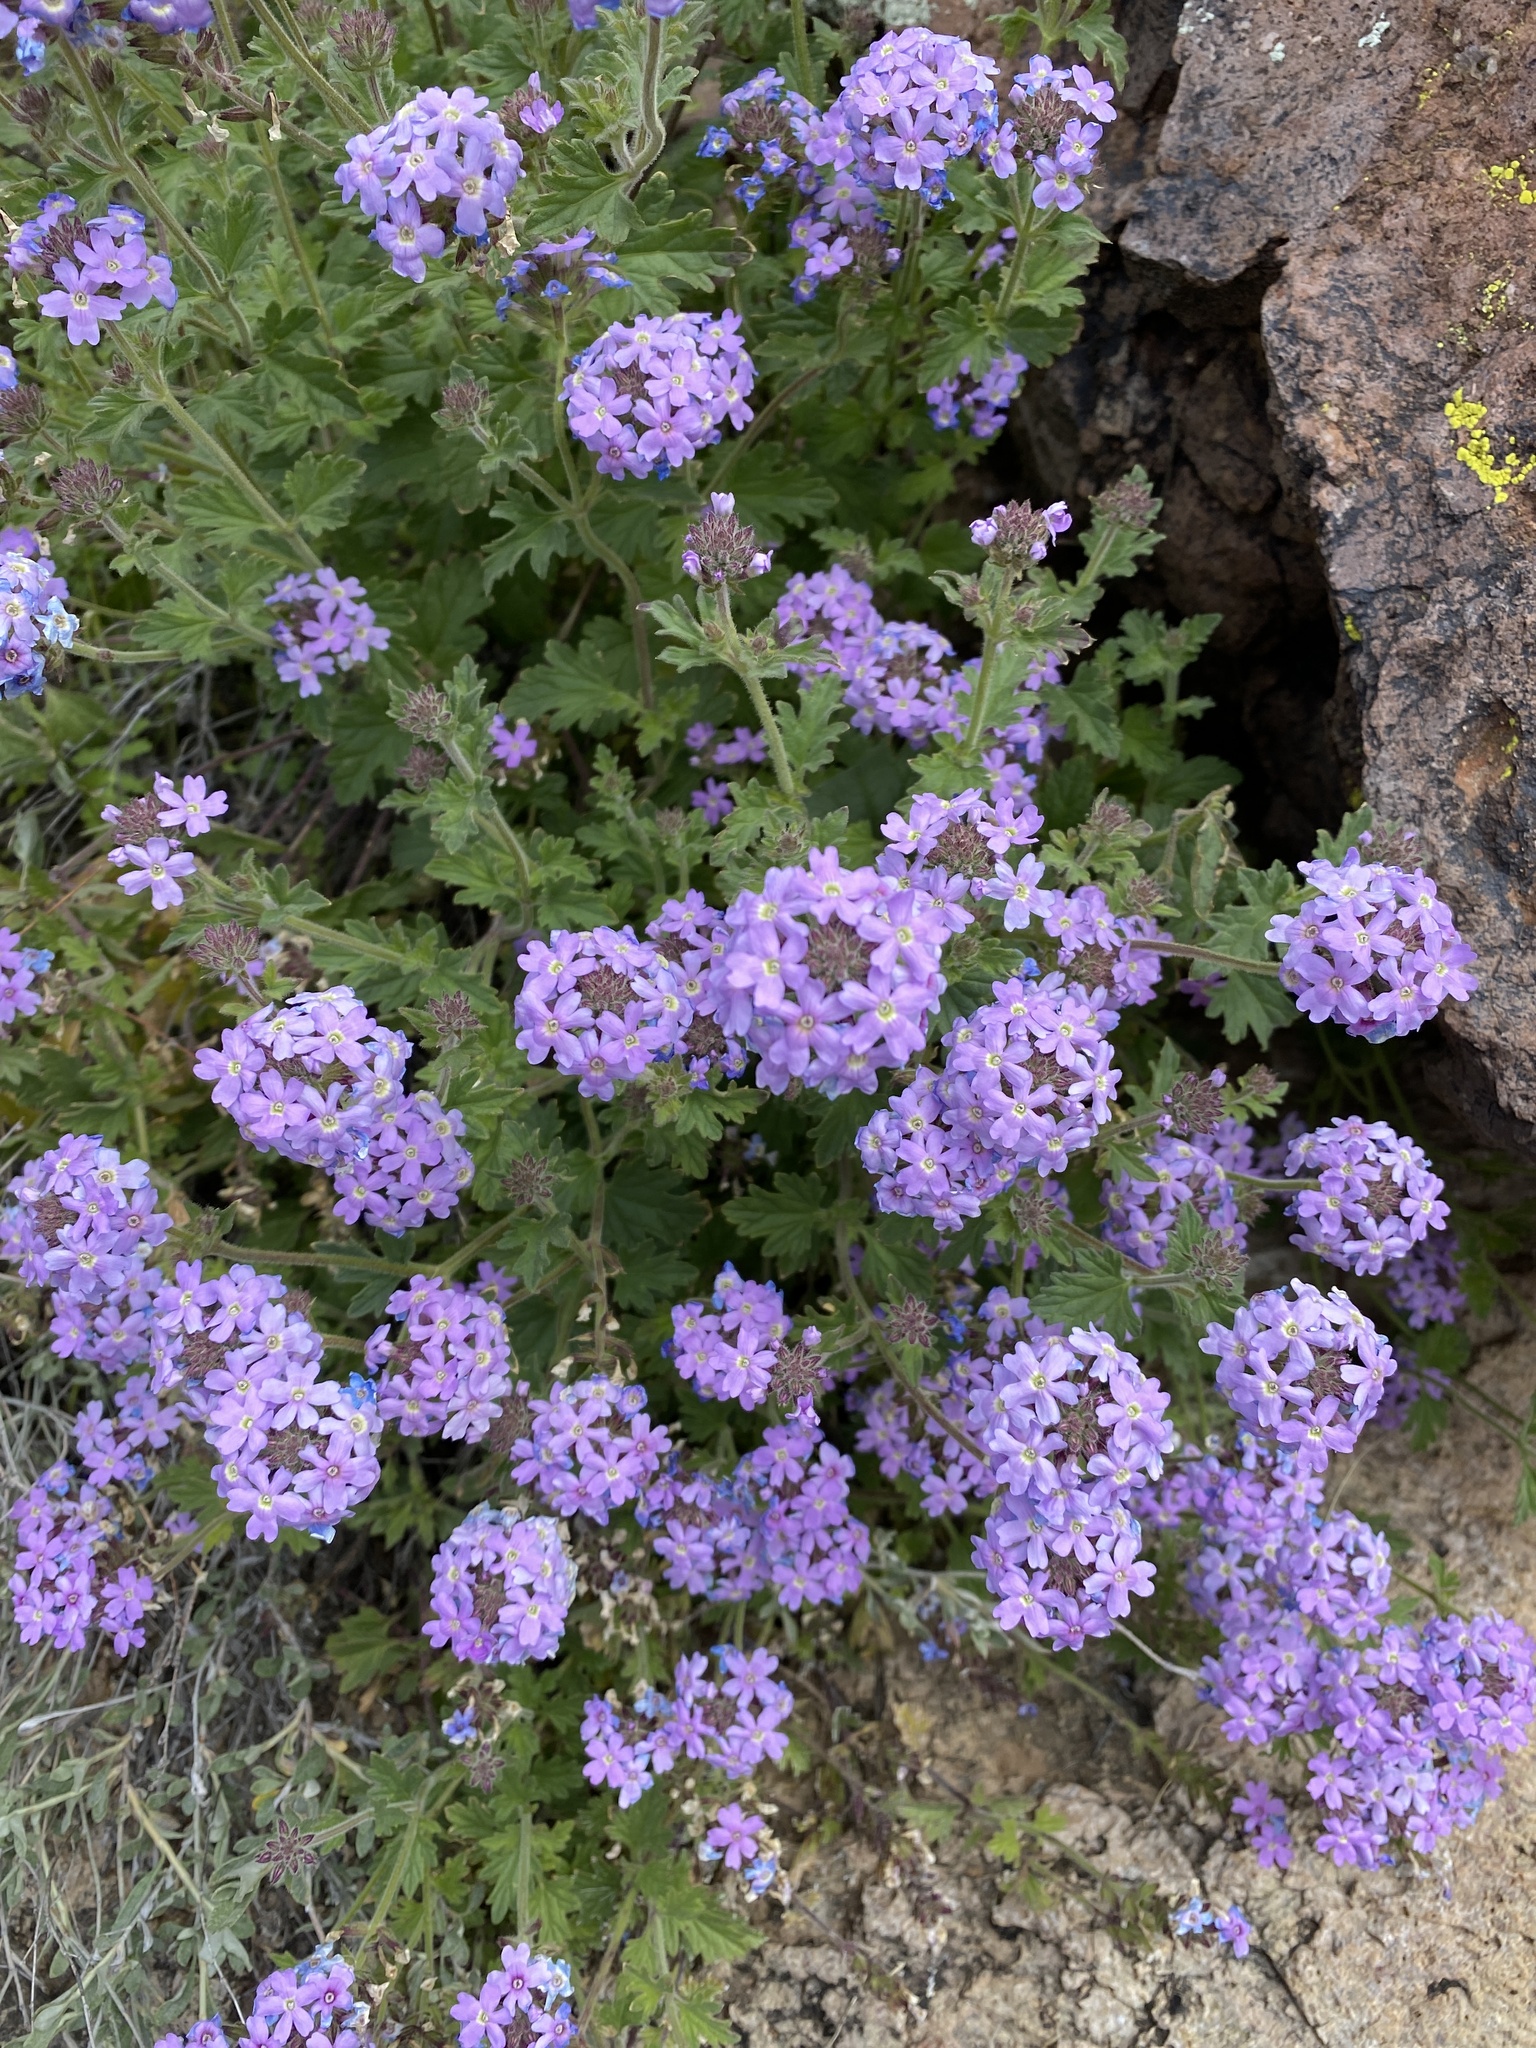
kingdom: Plantae
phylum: Tracheophyta
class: Magnoliopsida
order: Lamiales
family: Verbenaceae
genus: Verbena
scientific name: Verbena gooddingii
